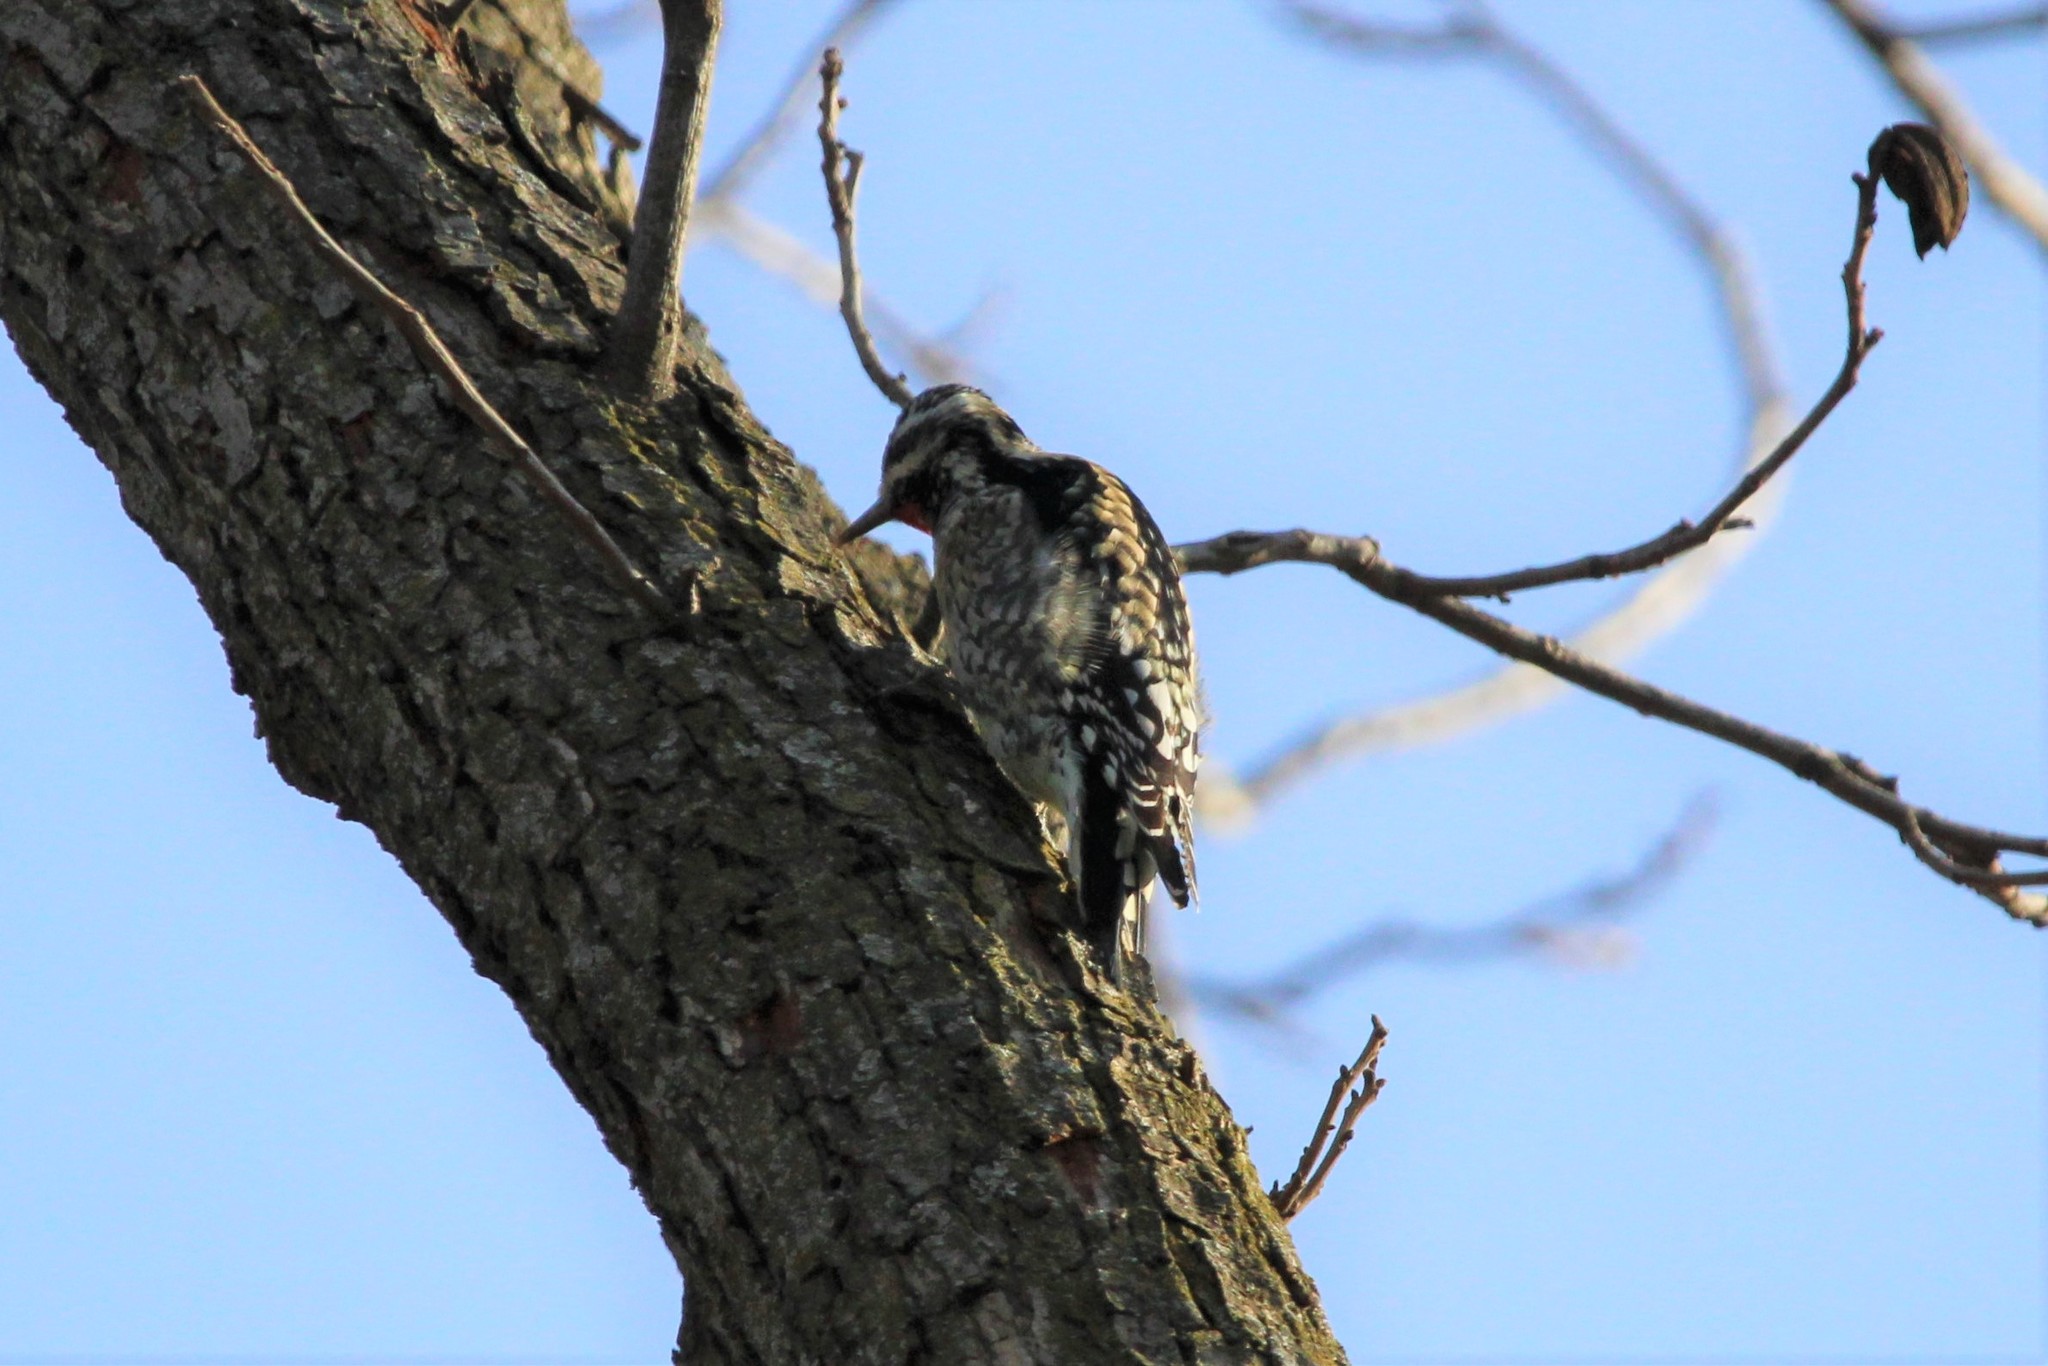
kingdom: Animalia
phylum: Chordata
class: Aves
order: Piciformes
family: Picidae
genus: Sphyrapicus
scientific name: Sphyrapicus varius
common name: Yellow-bellied sapsucker
